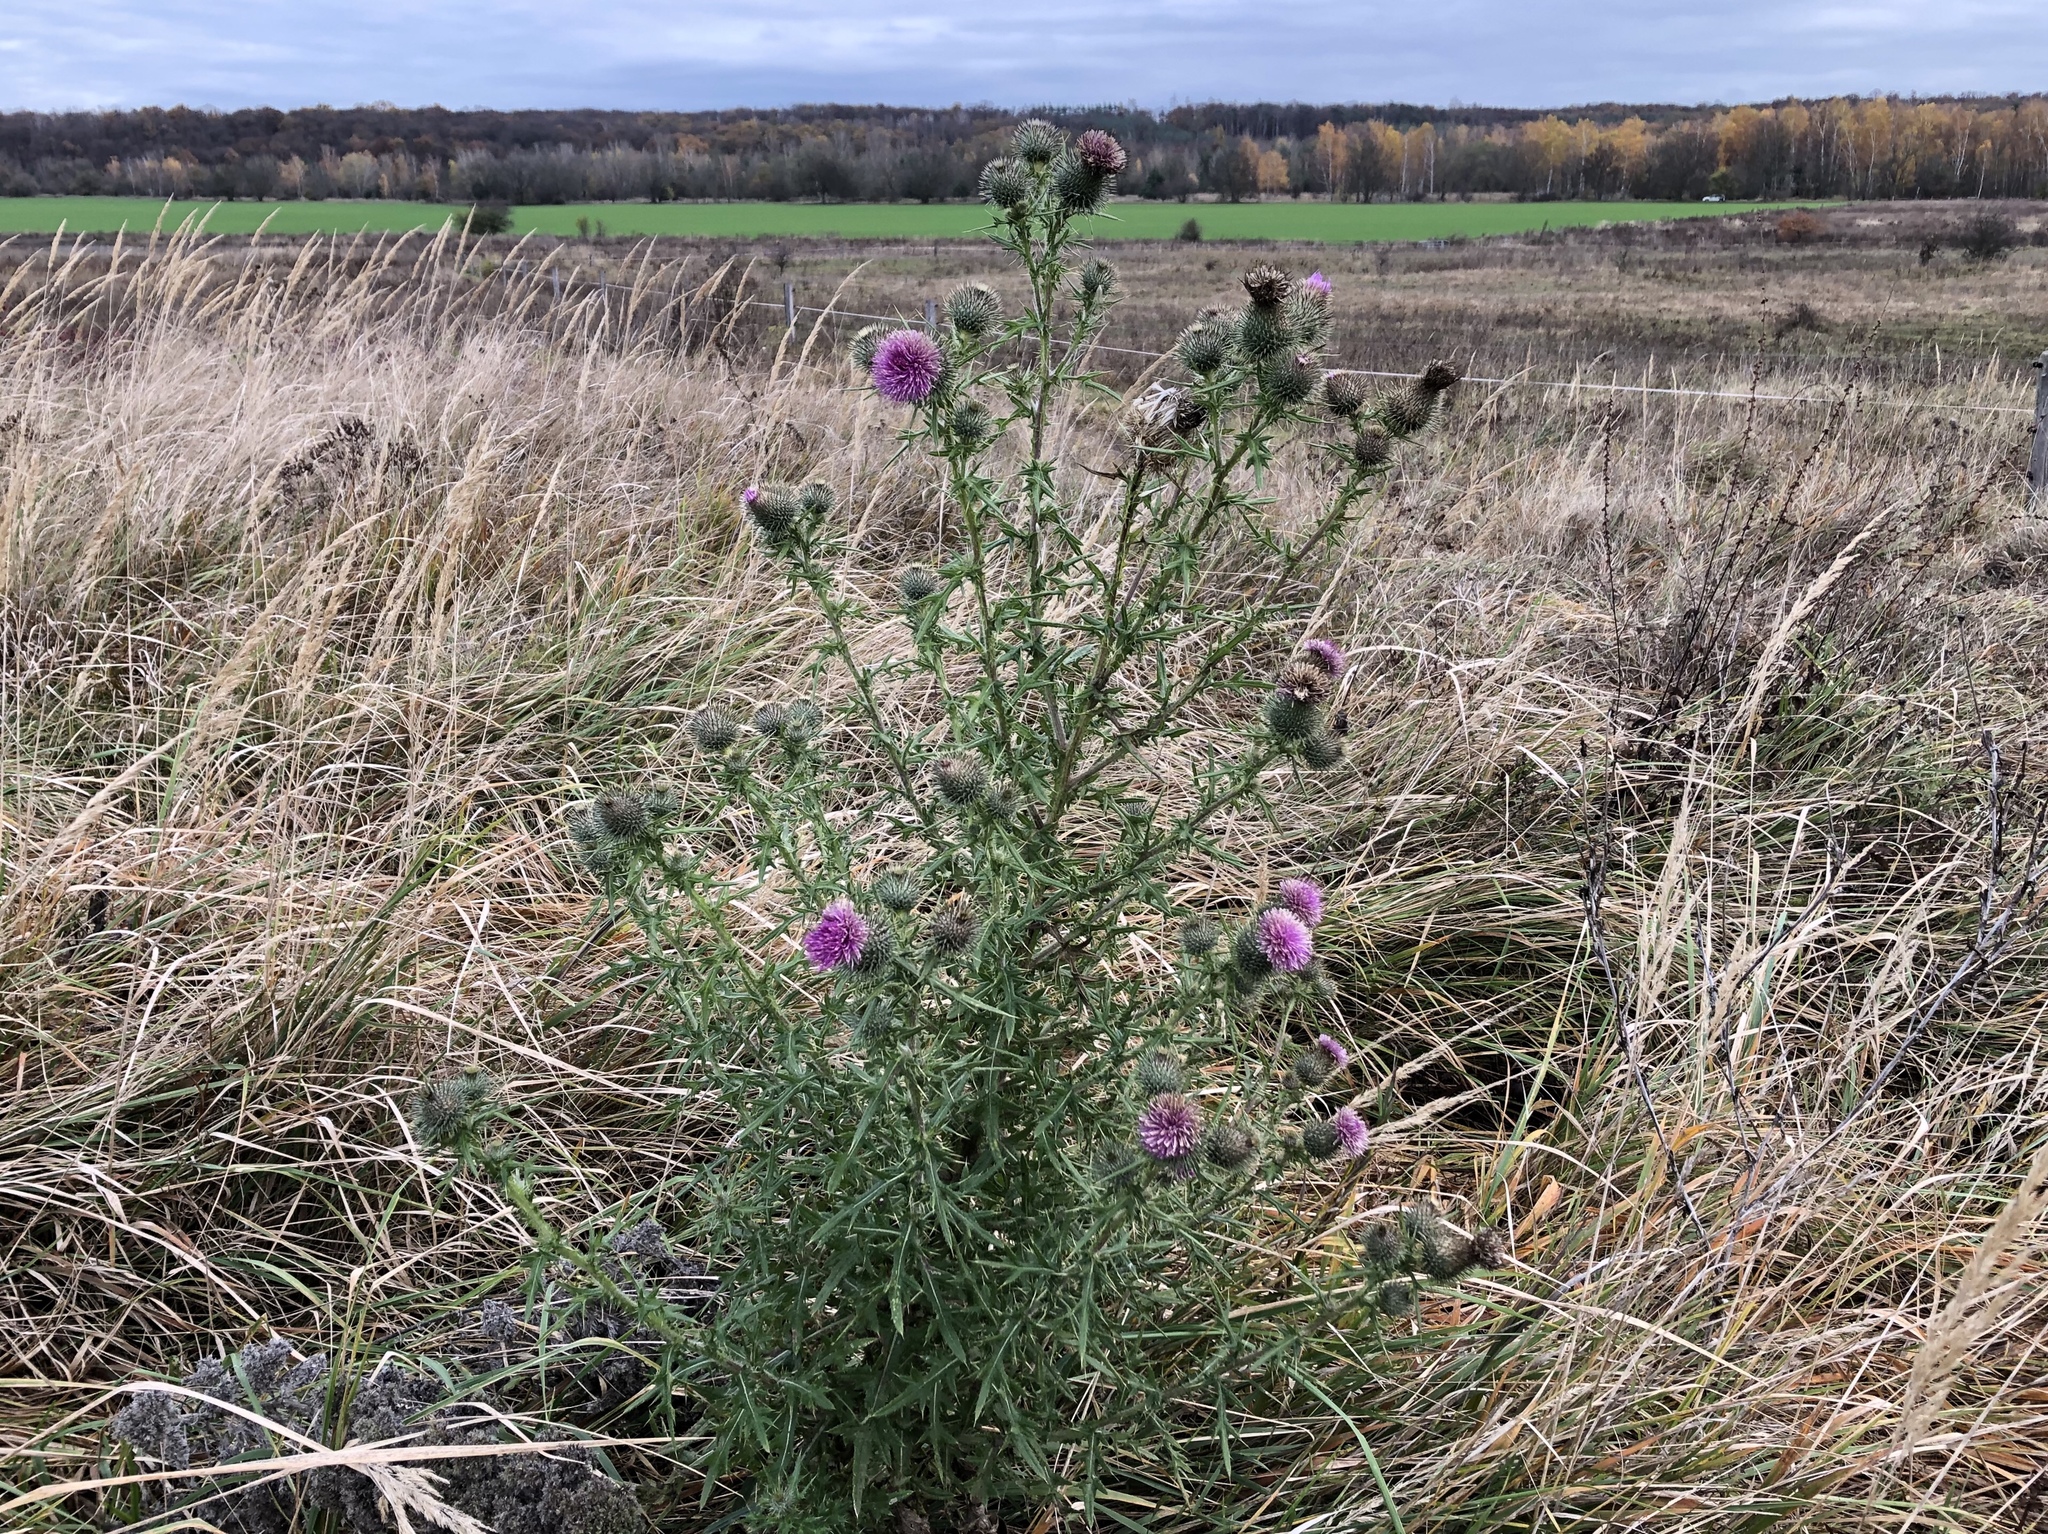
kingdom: Plantae
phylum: Tracheophyta
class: Magnoliopsida
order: Asterales
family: Asteraceae
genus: Cirsium
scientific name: Cirsium vulgare
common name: Bull thistle
